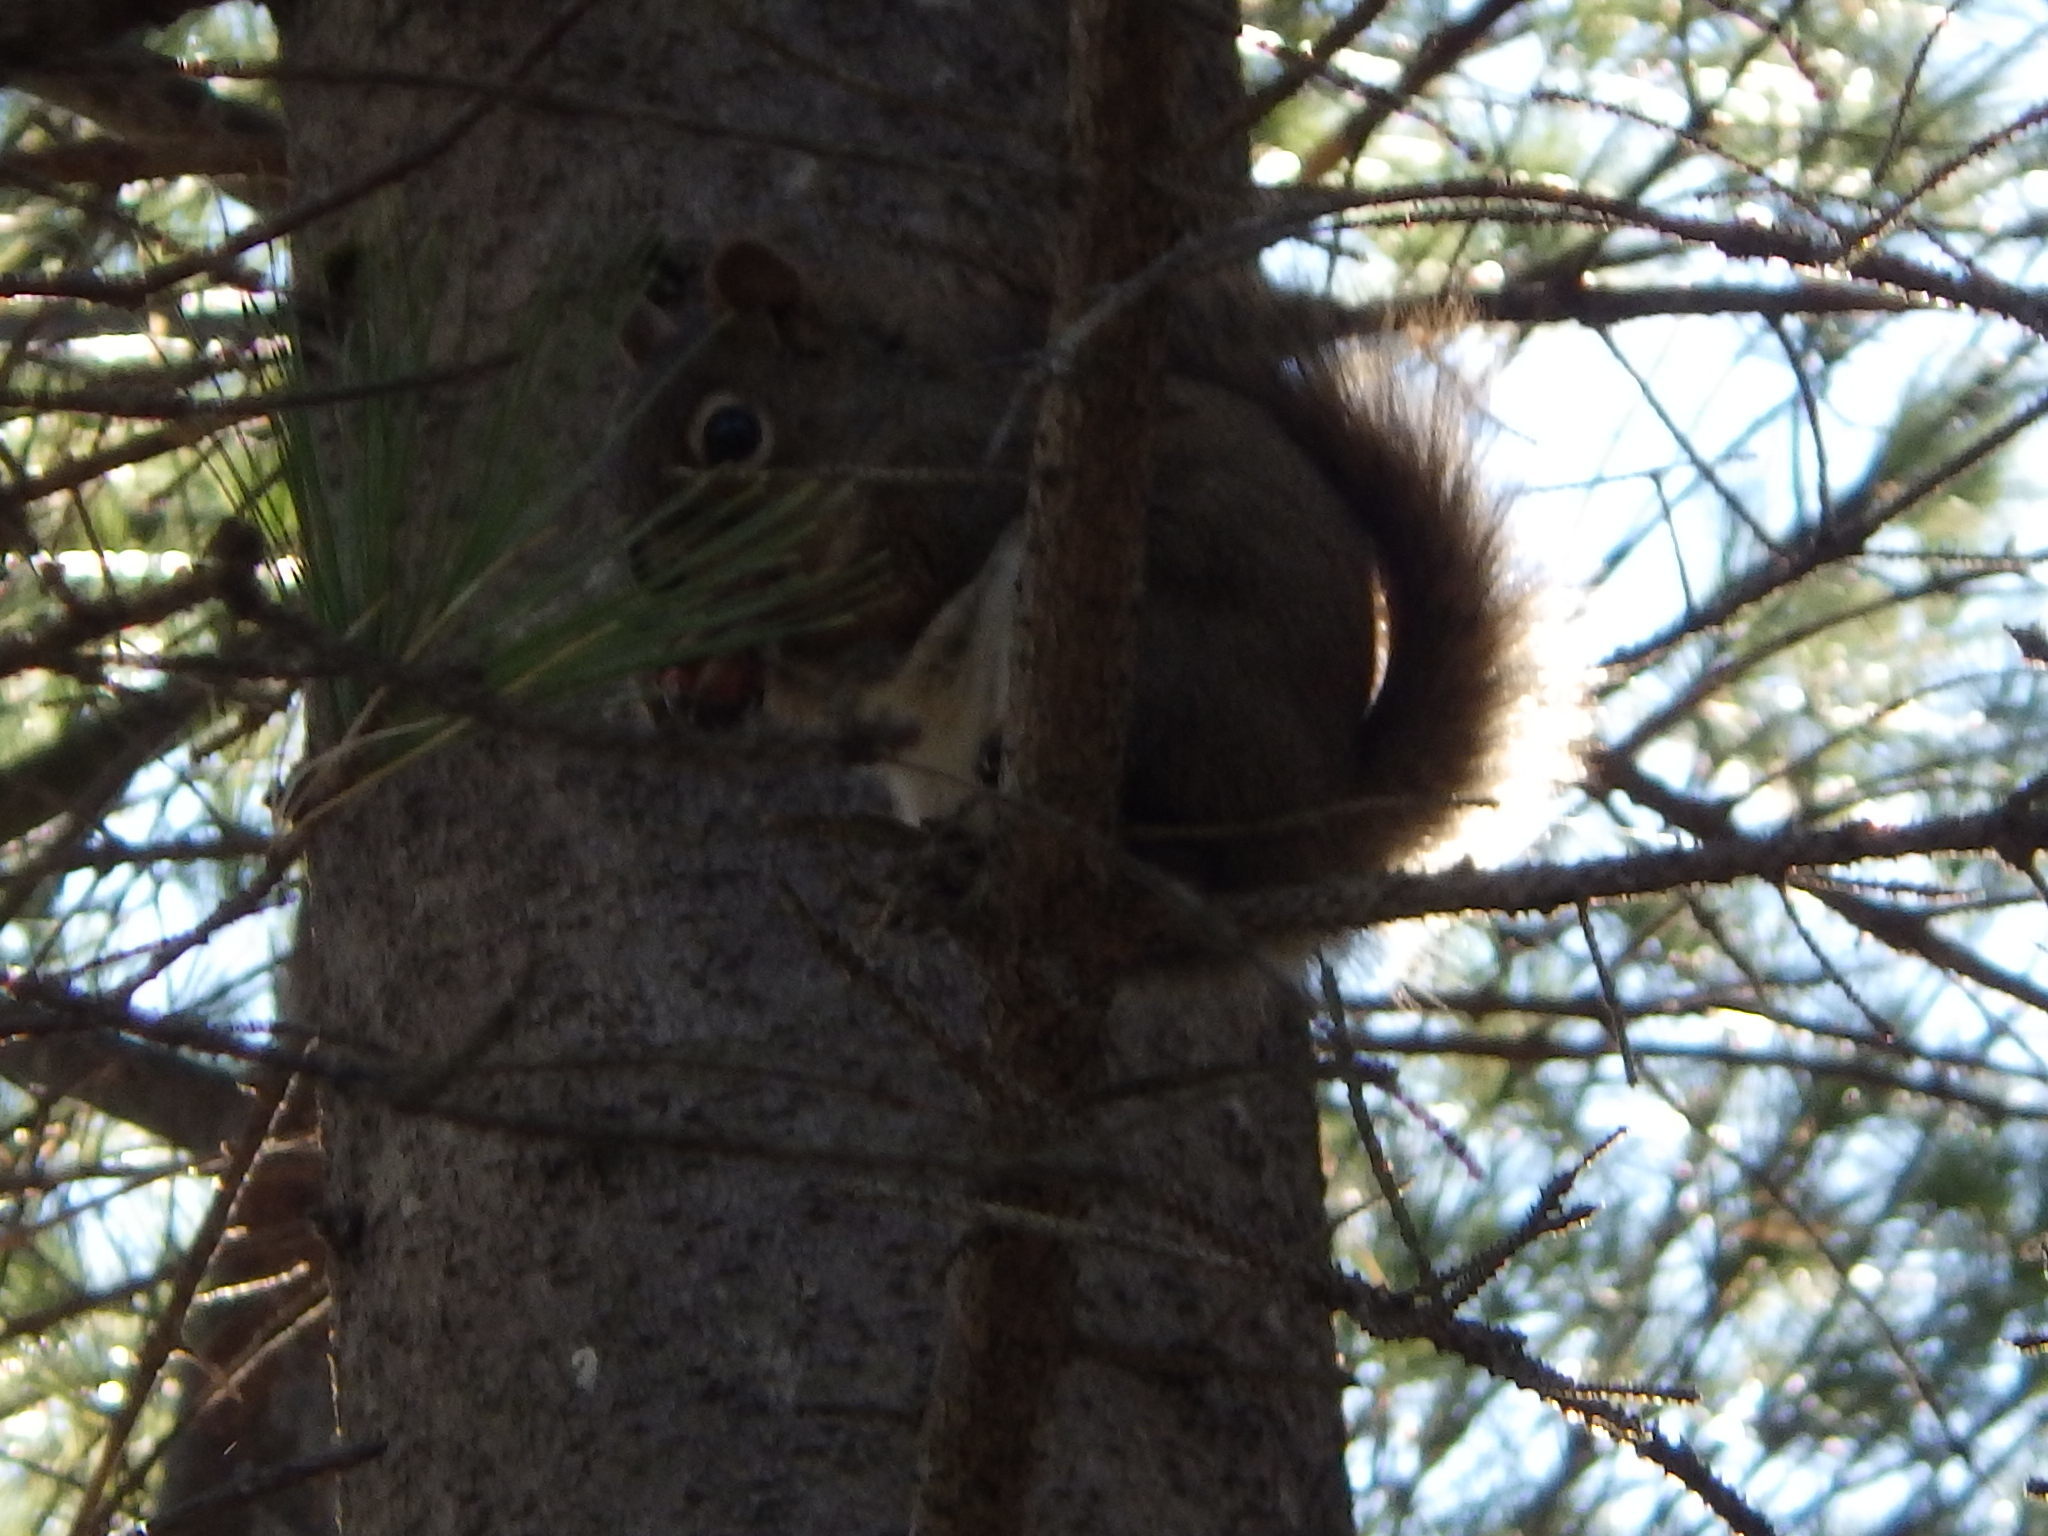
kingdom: Animalia
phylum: Chordata
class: Mammalia
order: Rodentia
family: Sciuridae
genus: Tamiasciurus
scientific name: Tamiasciurus hudsonicus
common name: Red squirrel
